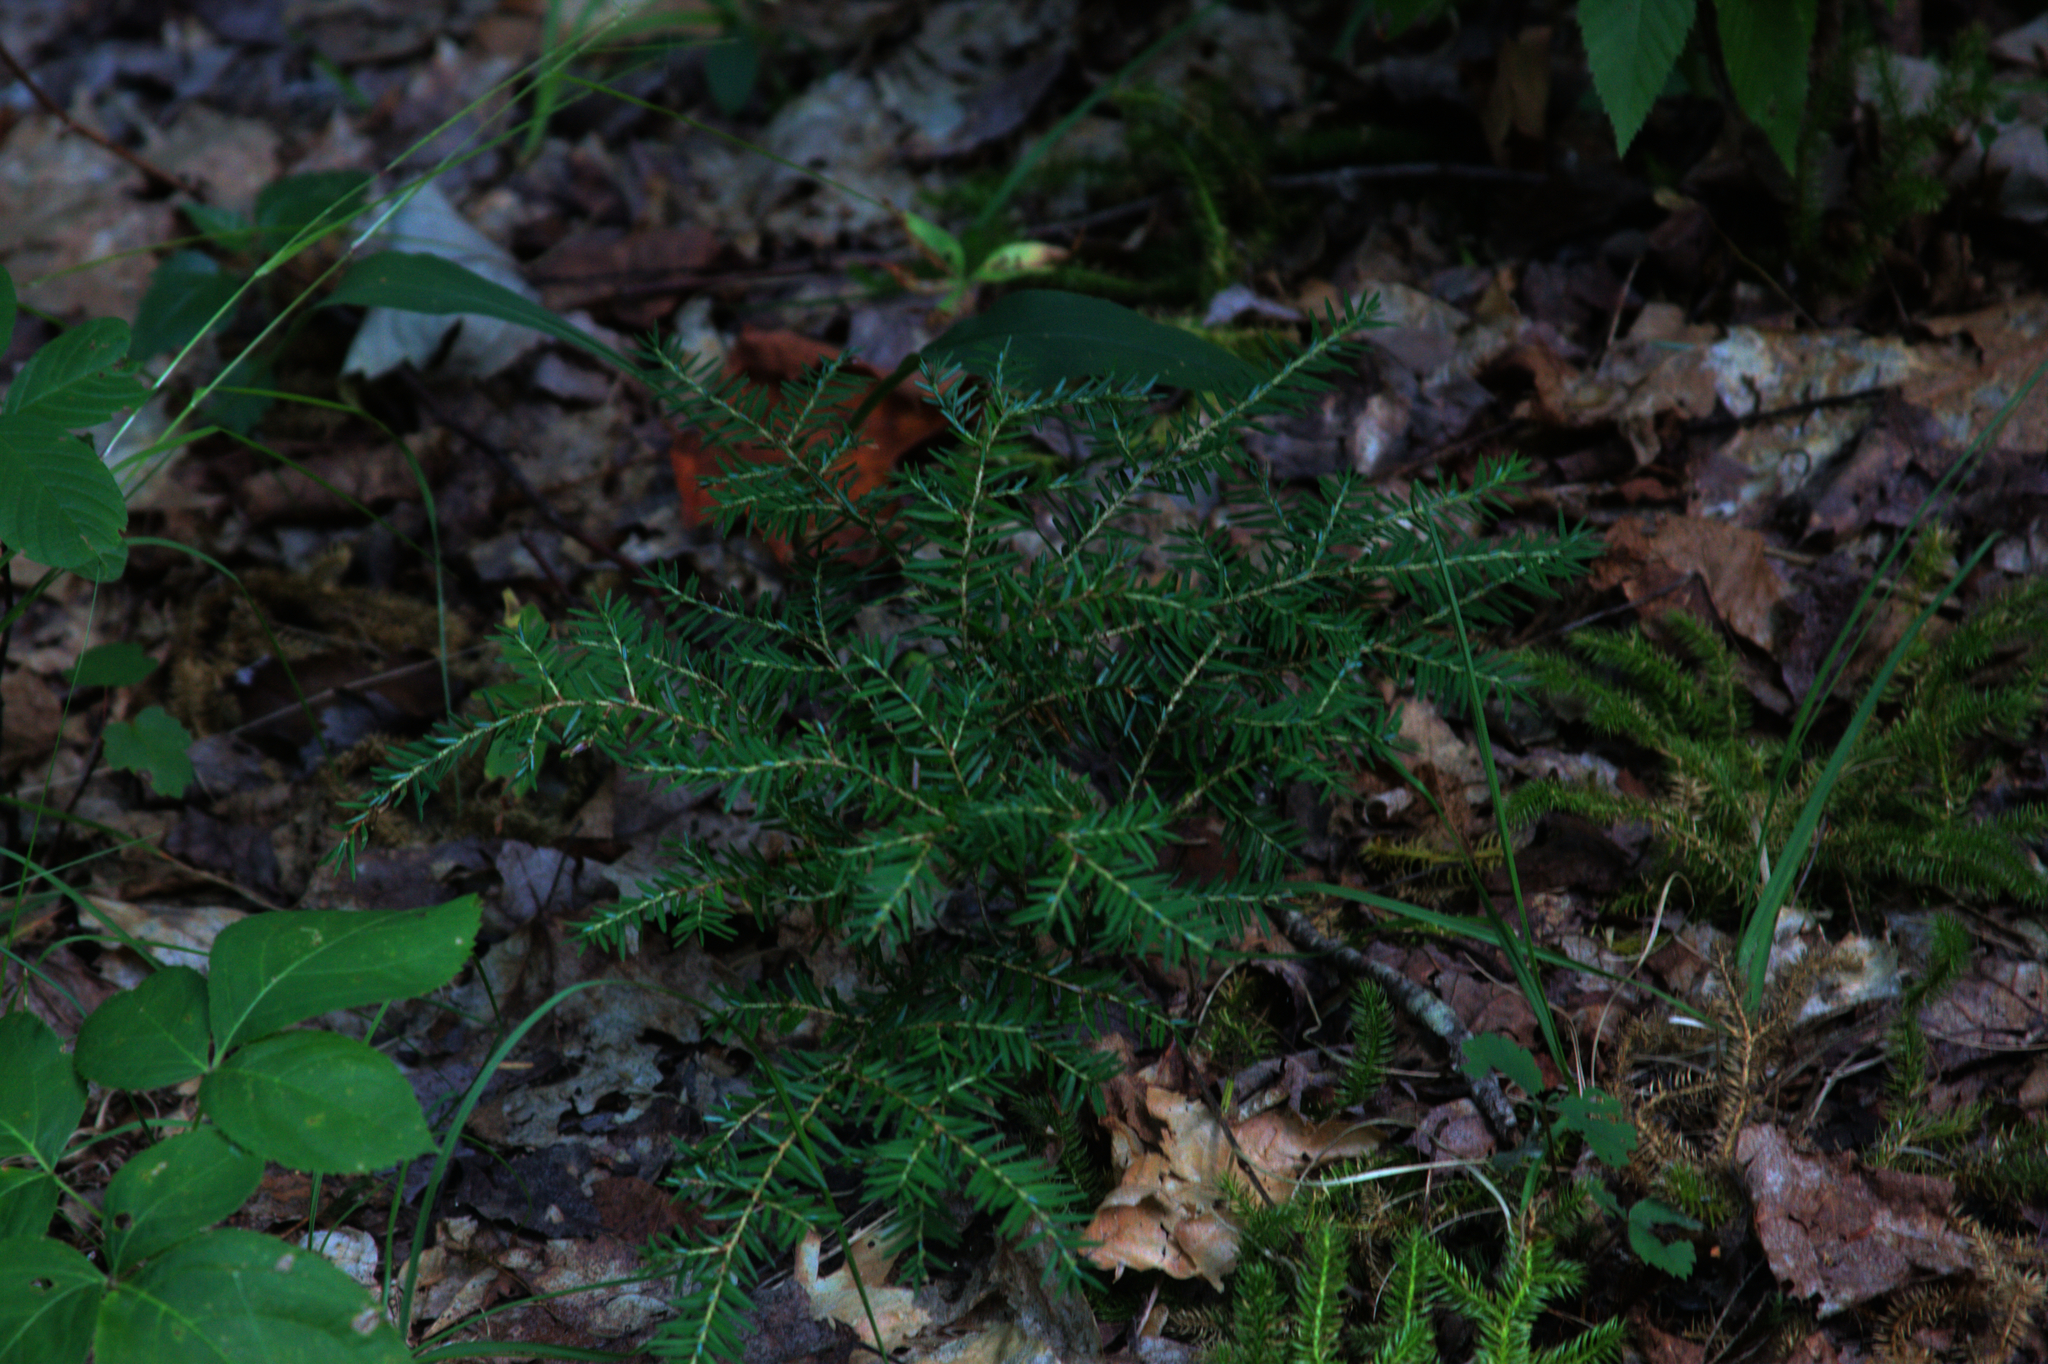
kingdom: Plantae
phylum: Tracheophyta
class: Pinopsida
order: Pinales
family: Pinaceae
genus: Tsuga
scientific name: Tsuga canadensis
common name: Eastern hemlock
